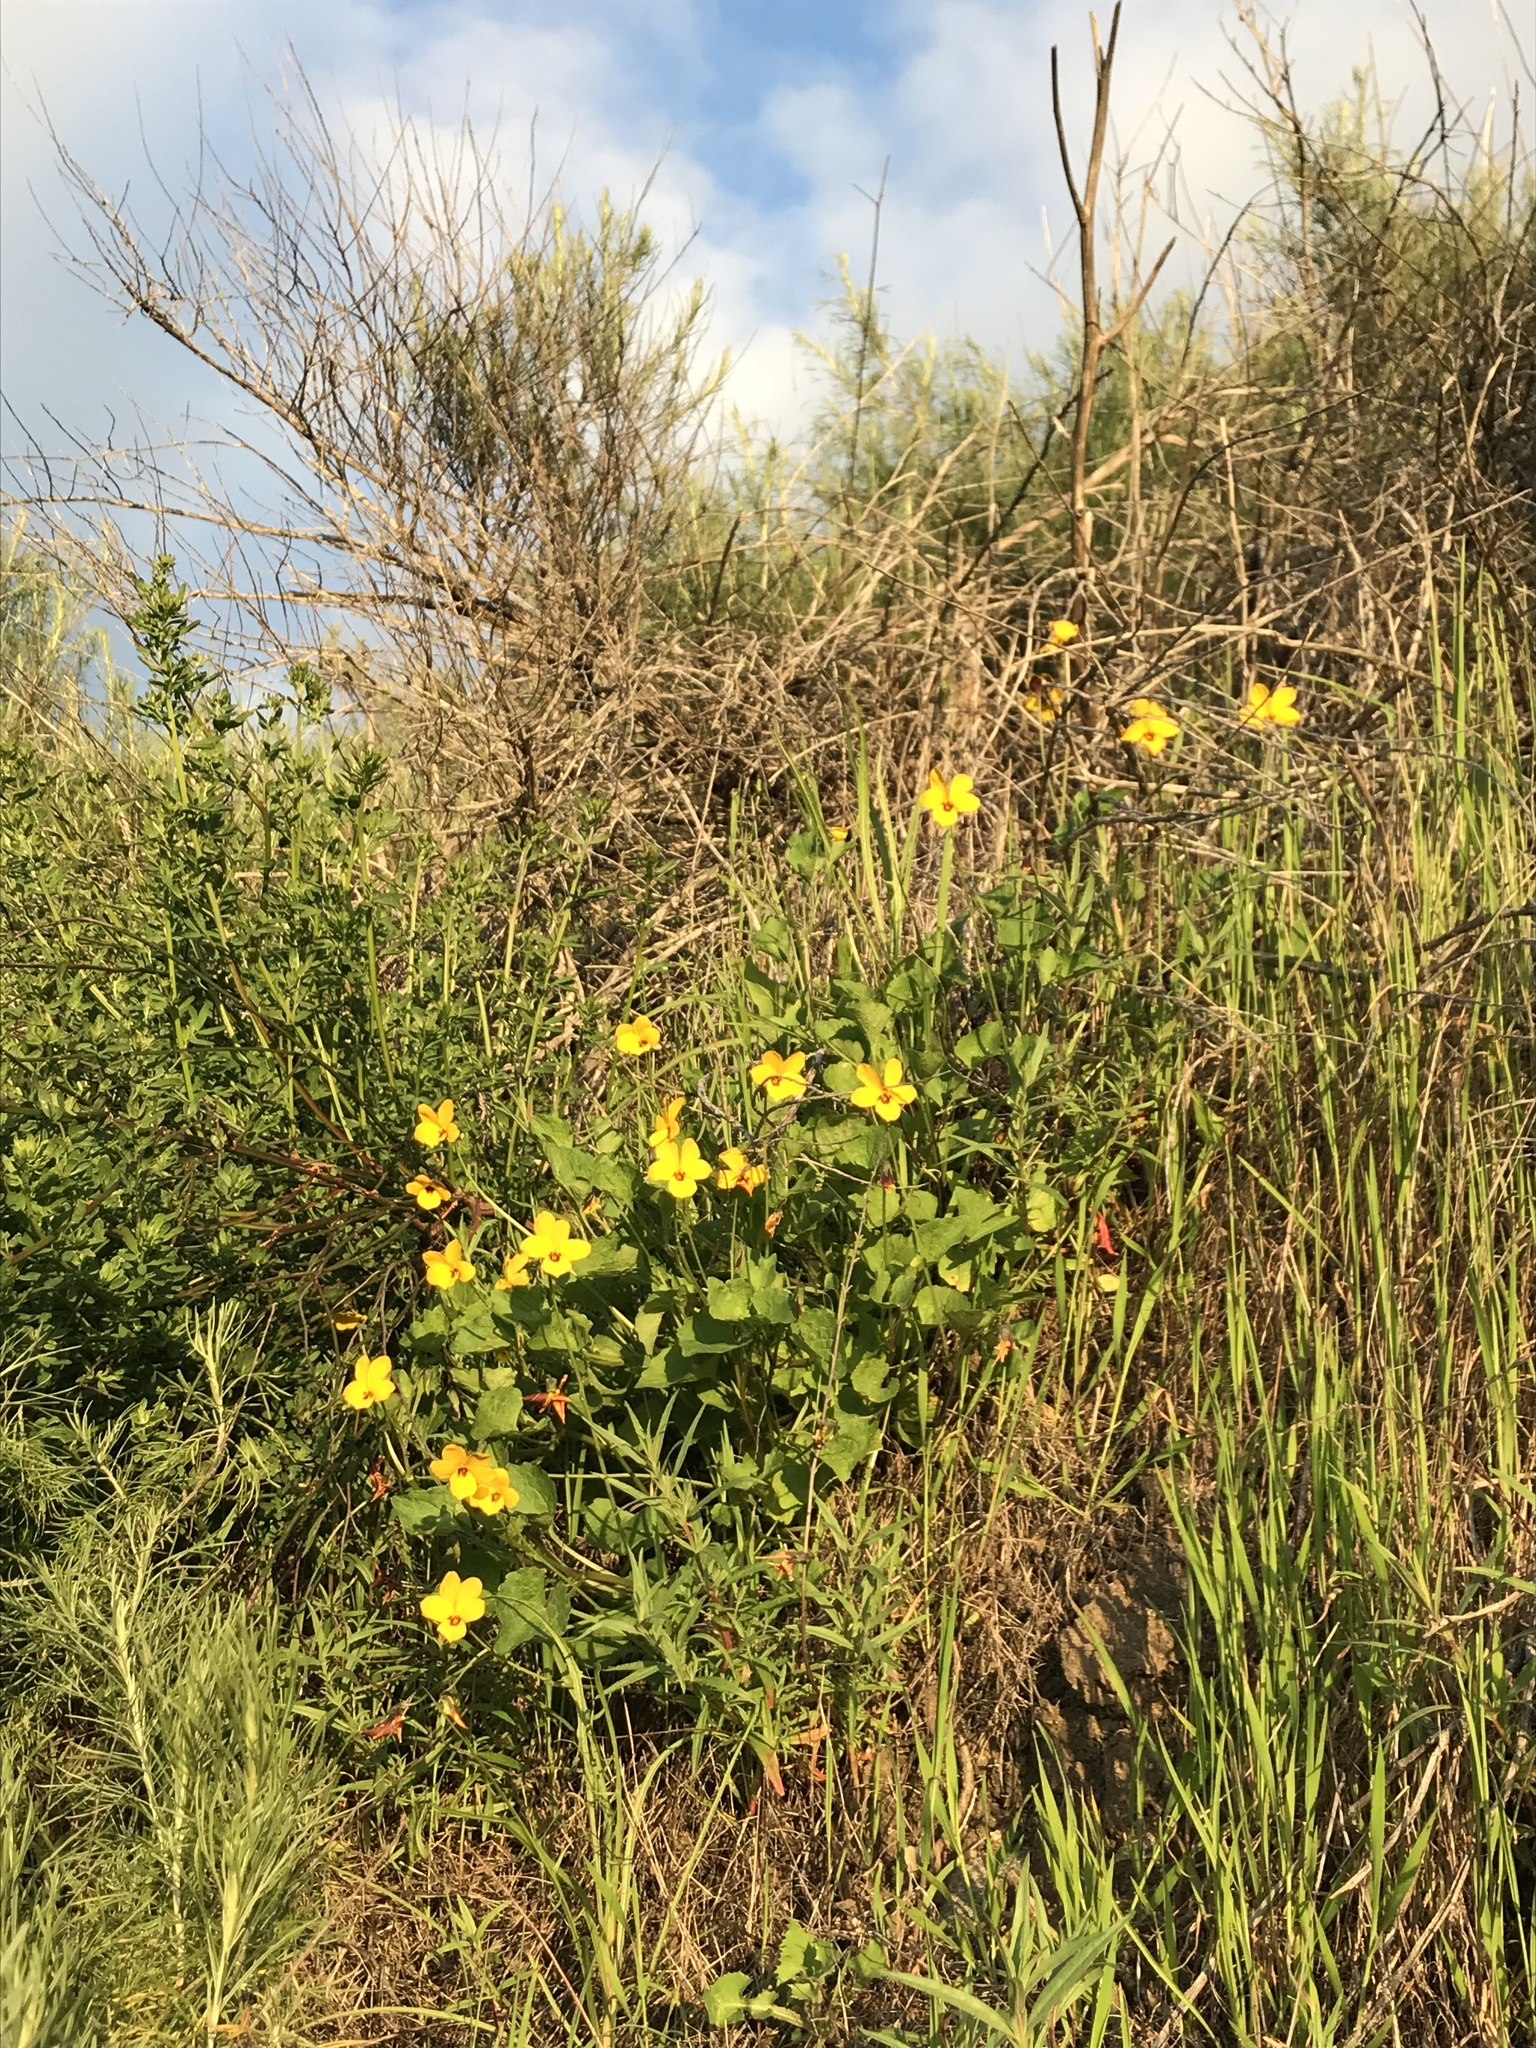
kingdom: Plantae
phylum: Tracheophyta
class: Magnoliopsida
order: Malpighiales
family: Violaceae
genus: Viola
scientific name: Viola pedunculata
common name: California golden violet
